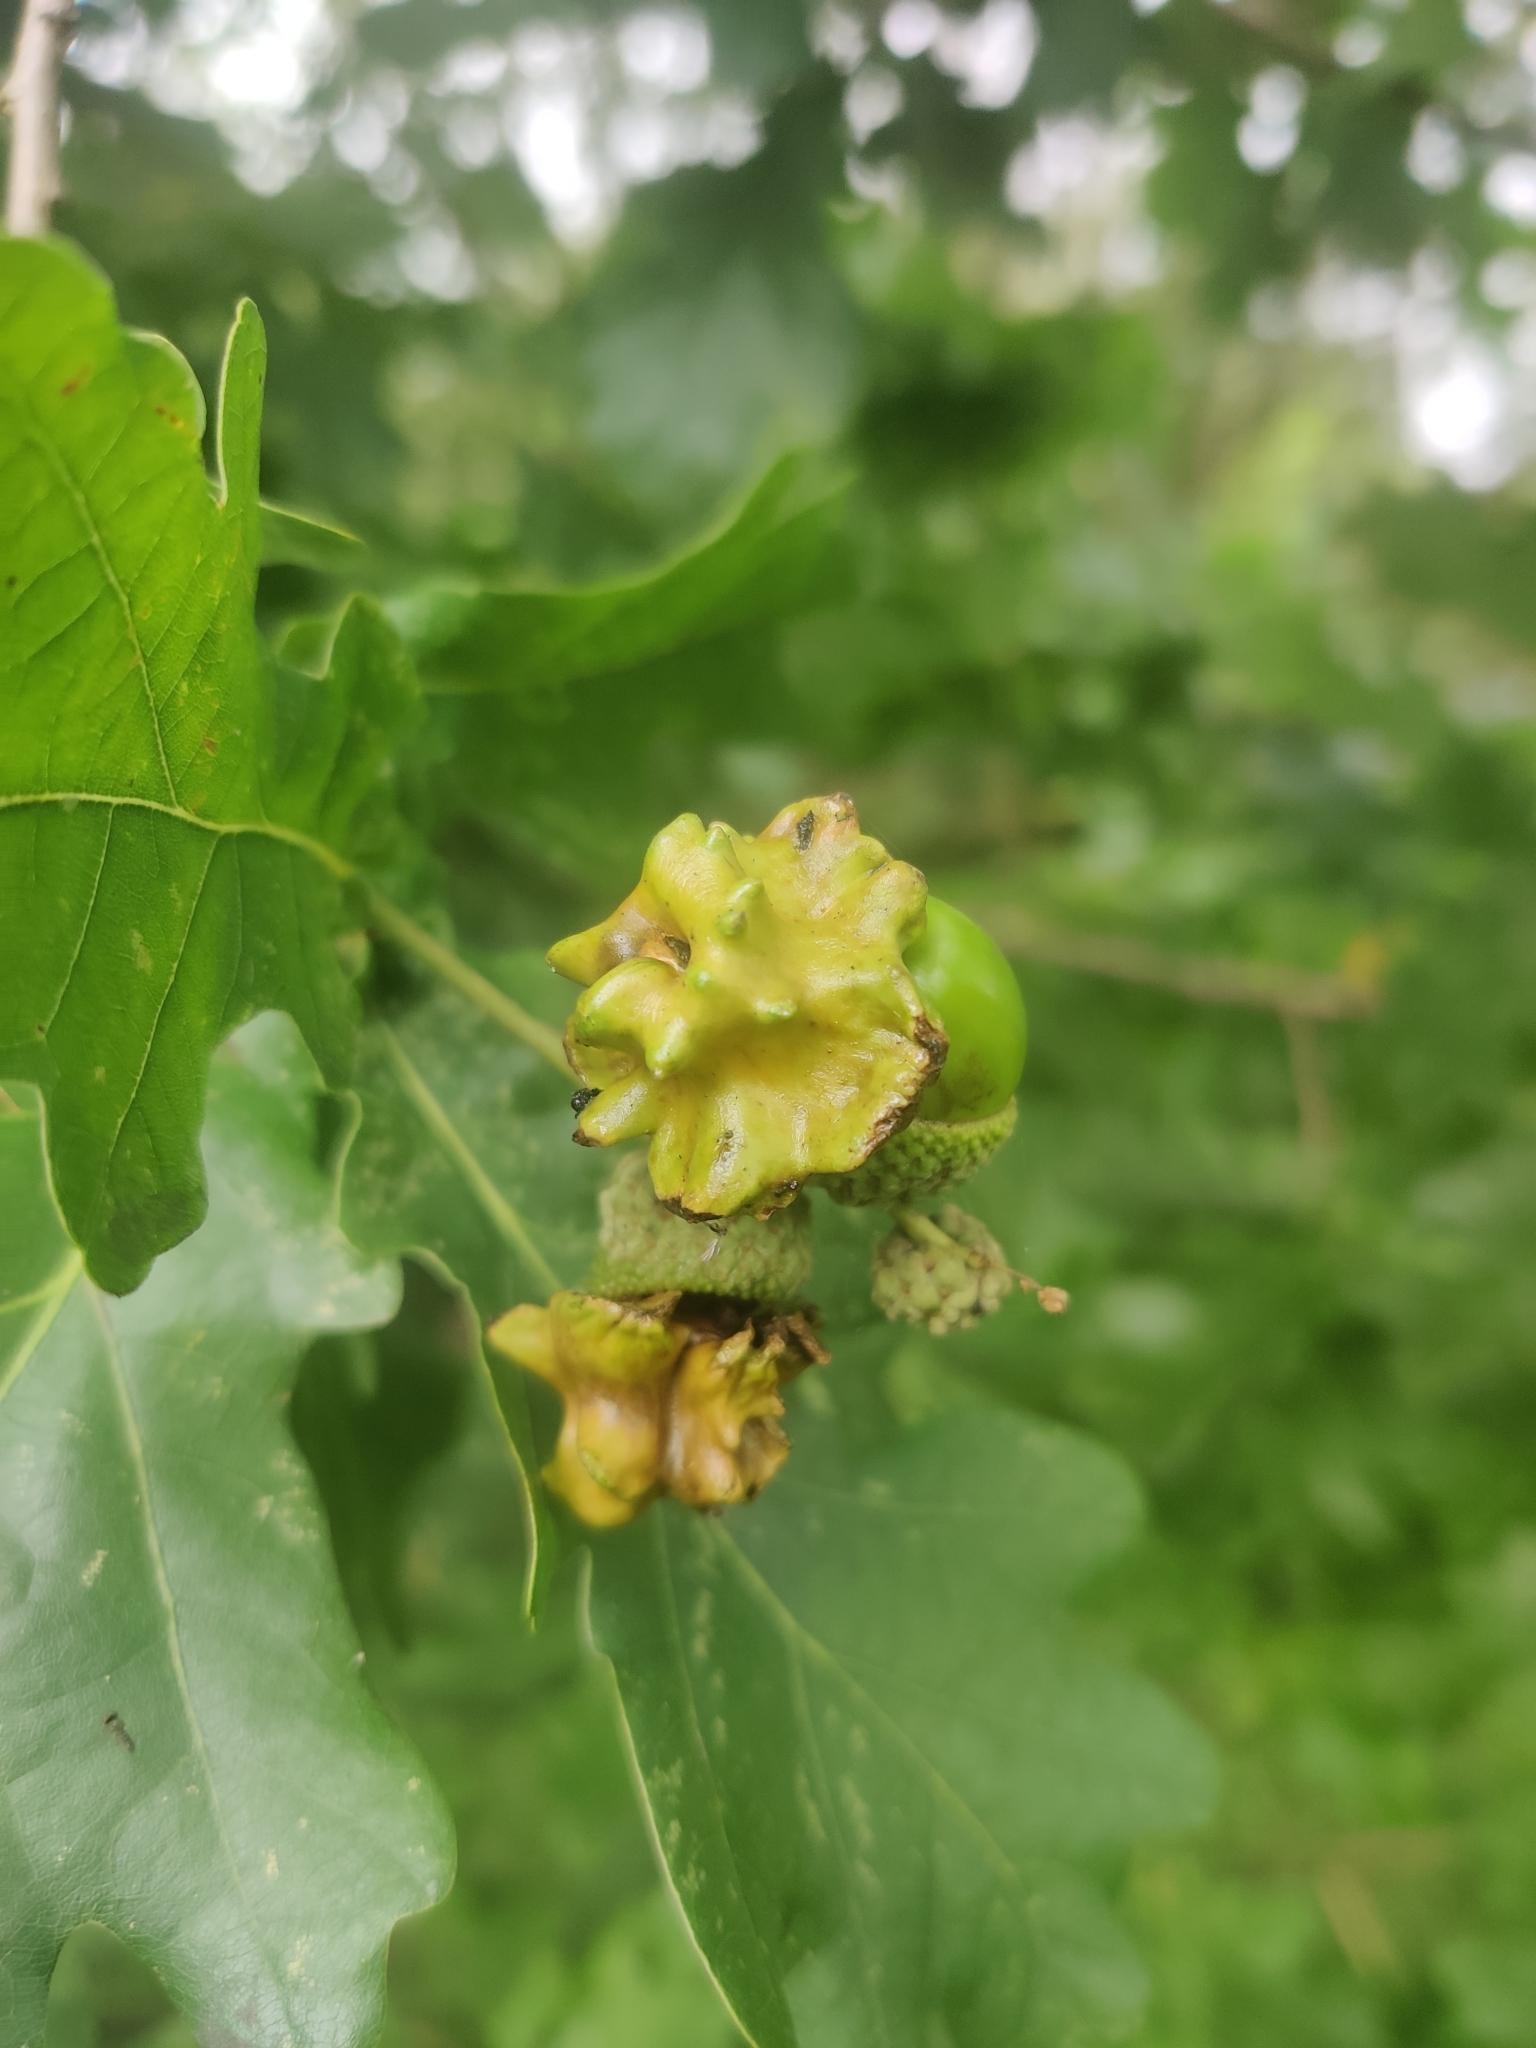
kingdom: Animalia
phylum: Arthropoda
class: Insecta
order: Hymenoptera
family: Cynipidae
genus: Andricus
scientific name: Andricus quercuscalicis
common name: Knopper gall
